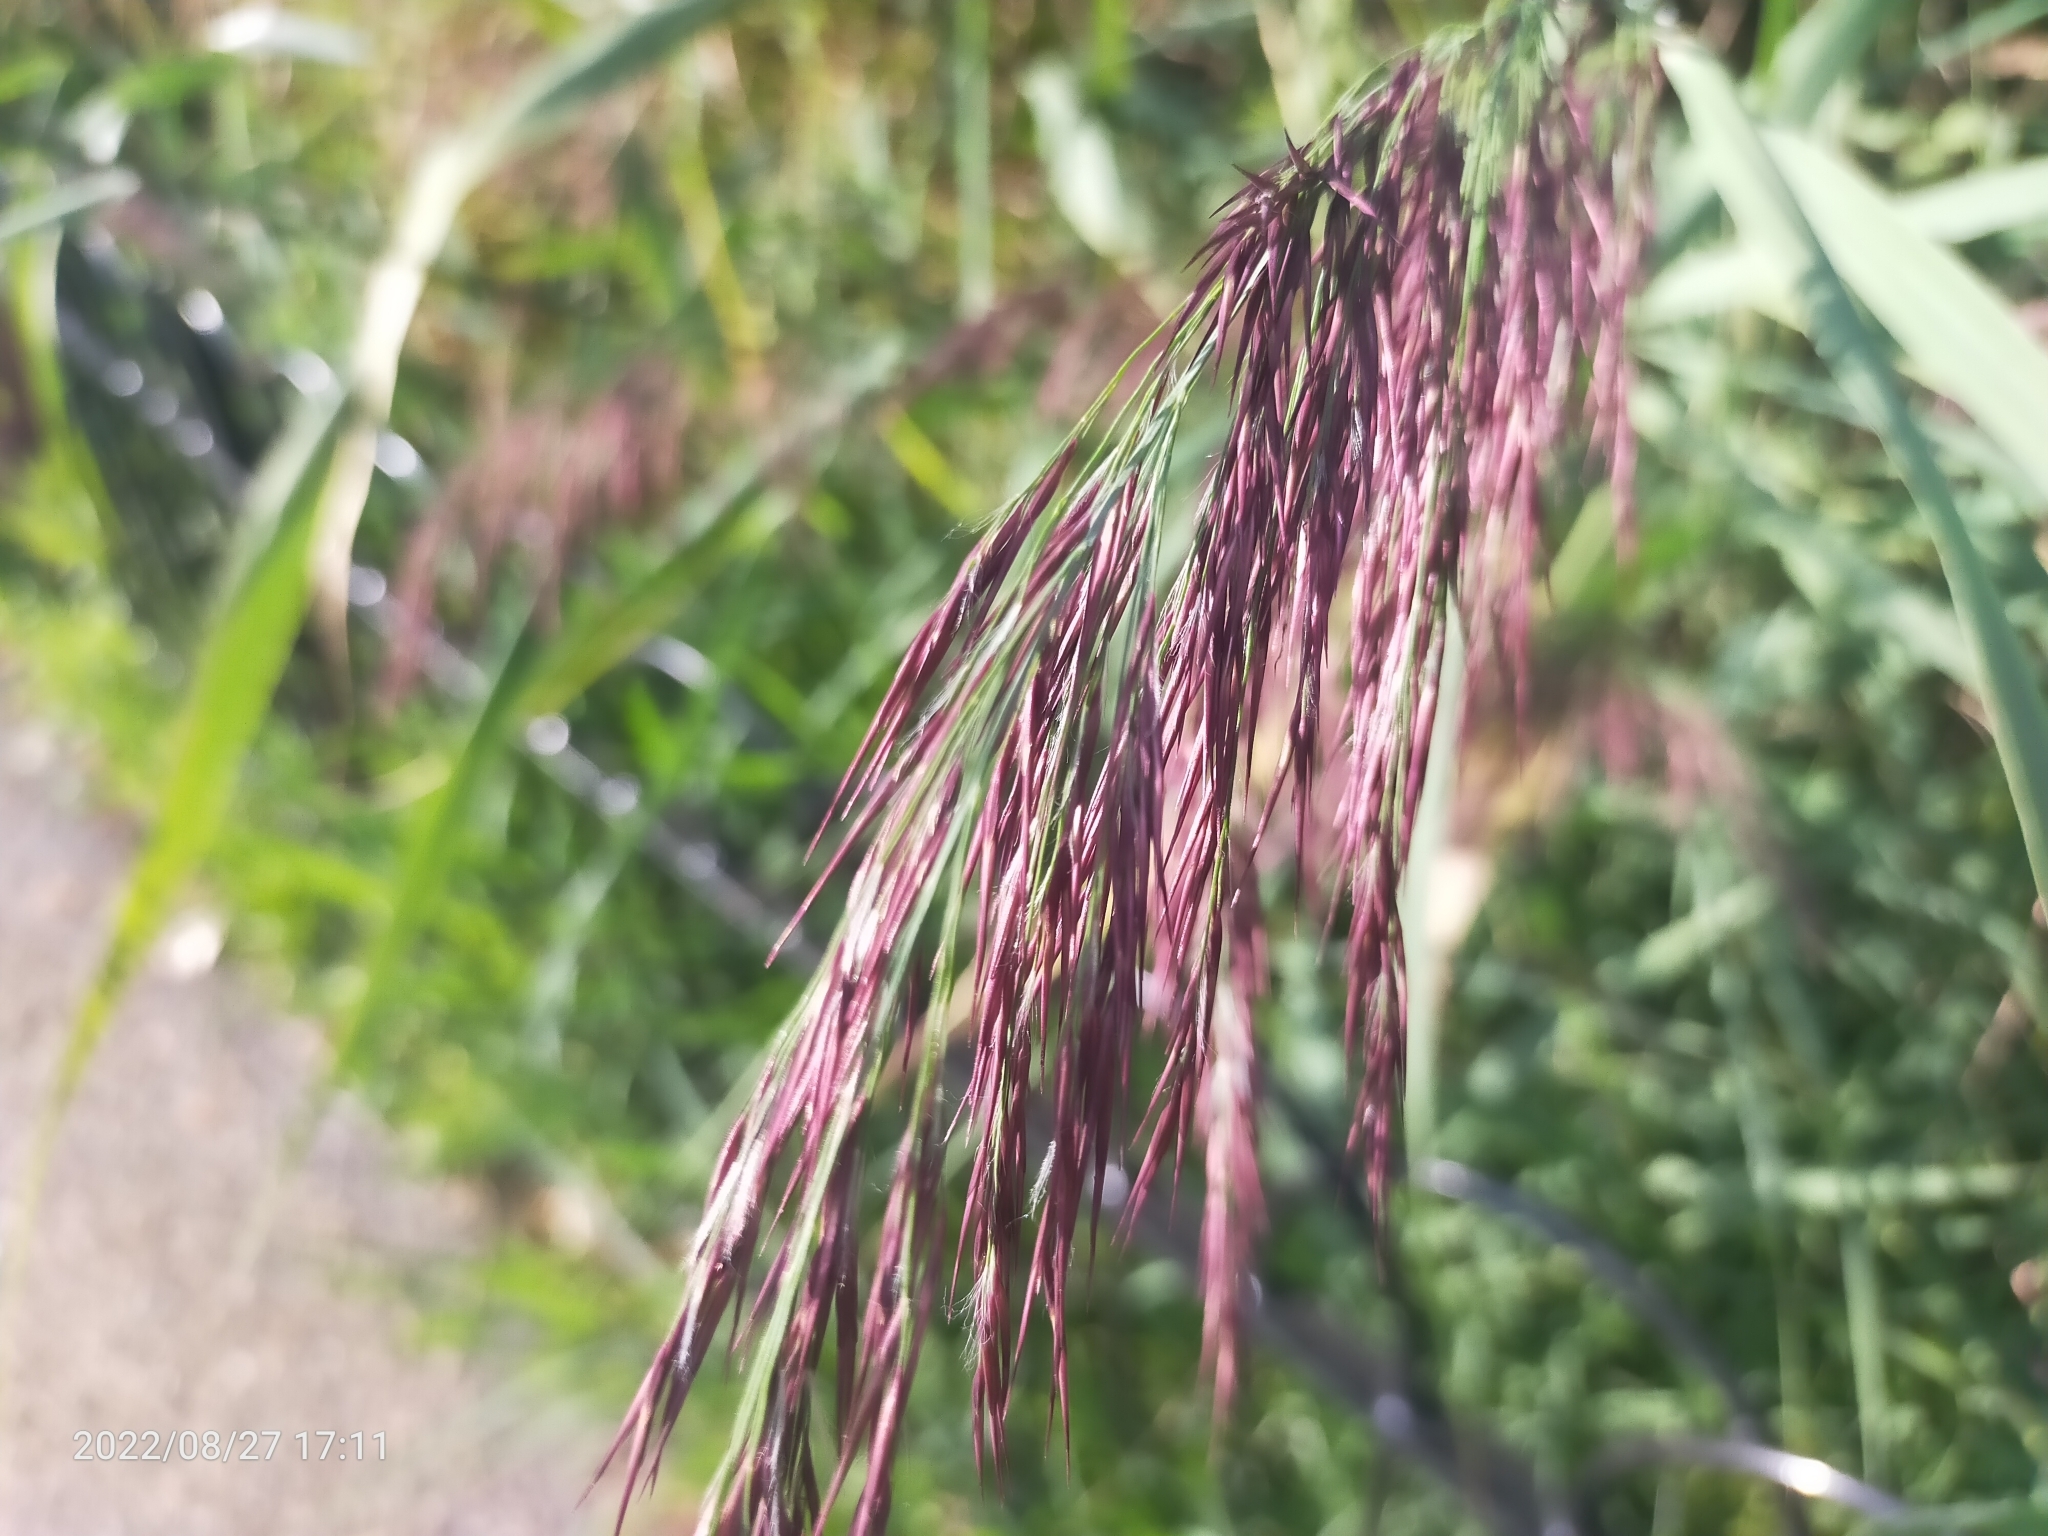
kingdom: Plantae
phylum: Tracheophyta
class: Liliopsida
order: Poales
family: Poaceae
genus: Phragmites
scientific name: Phragmites australis
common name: Common reed
